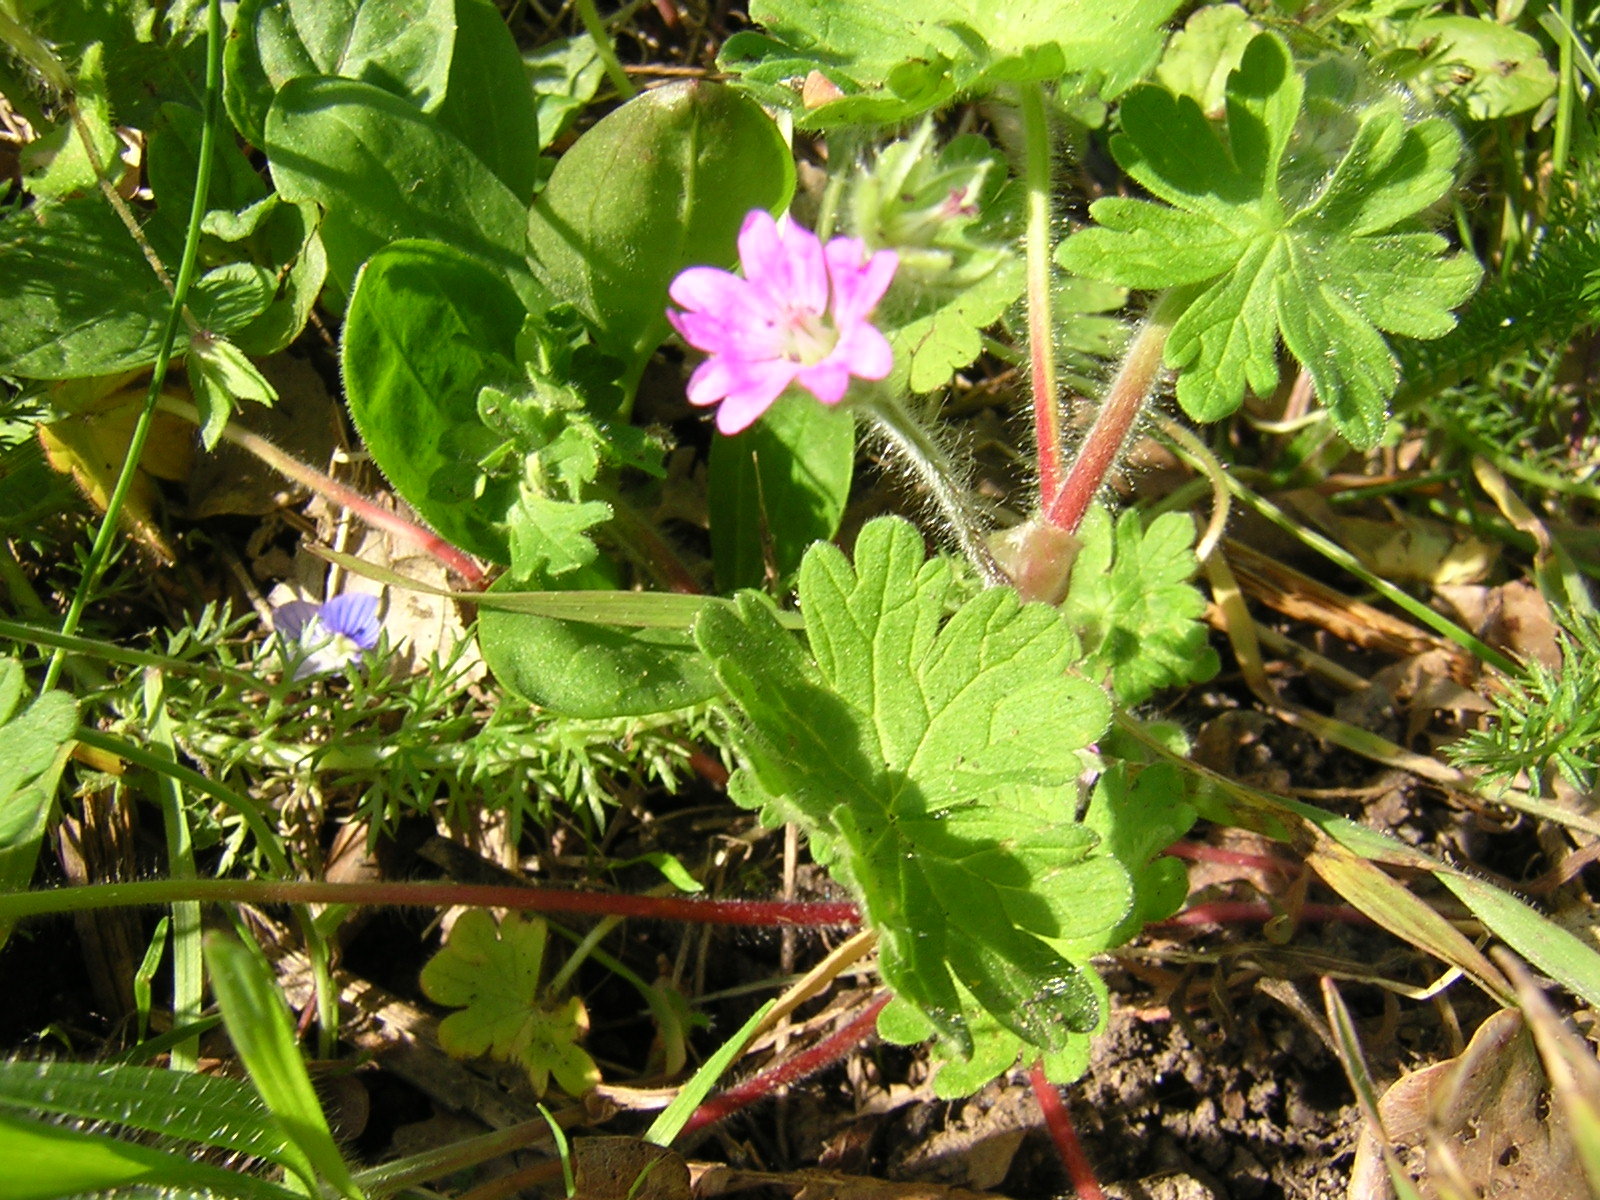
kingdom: Plantae
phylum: Tracheophyta
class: Magnoliopsida
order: Geraniales
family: Geraniaceae
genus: Geranium
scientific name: Geranium molle
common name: Dove's-foot crane's-bill
